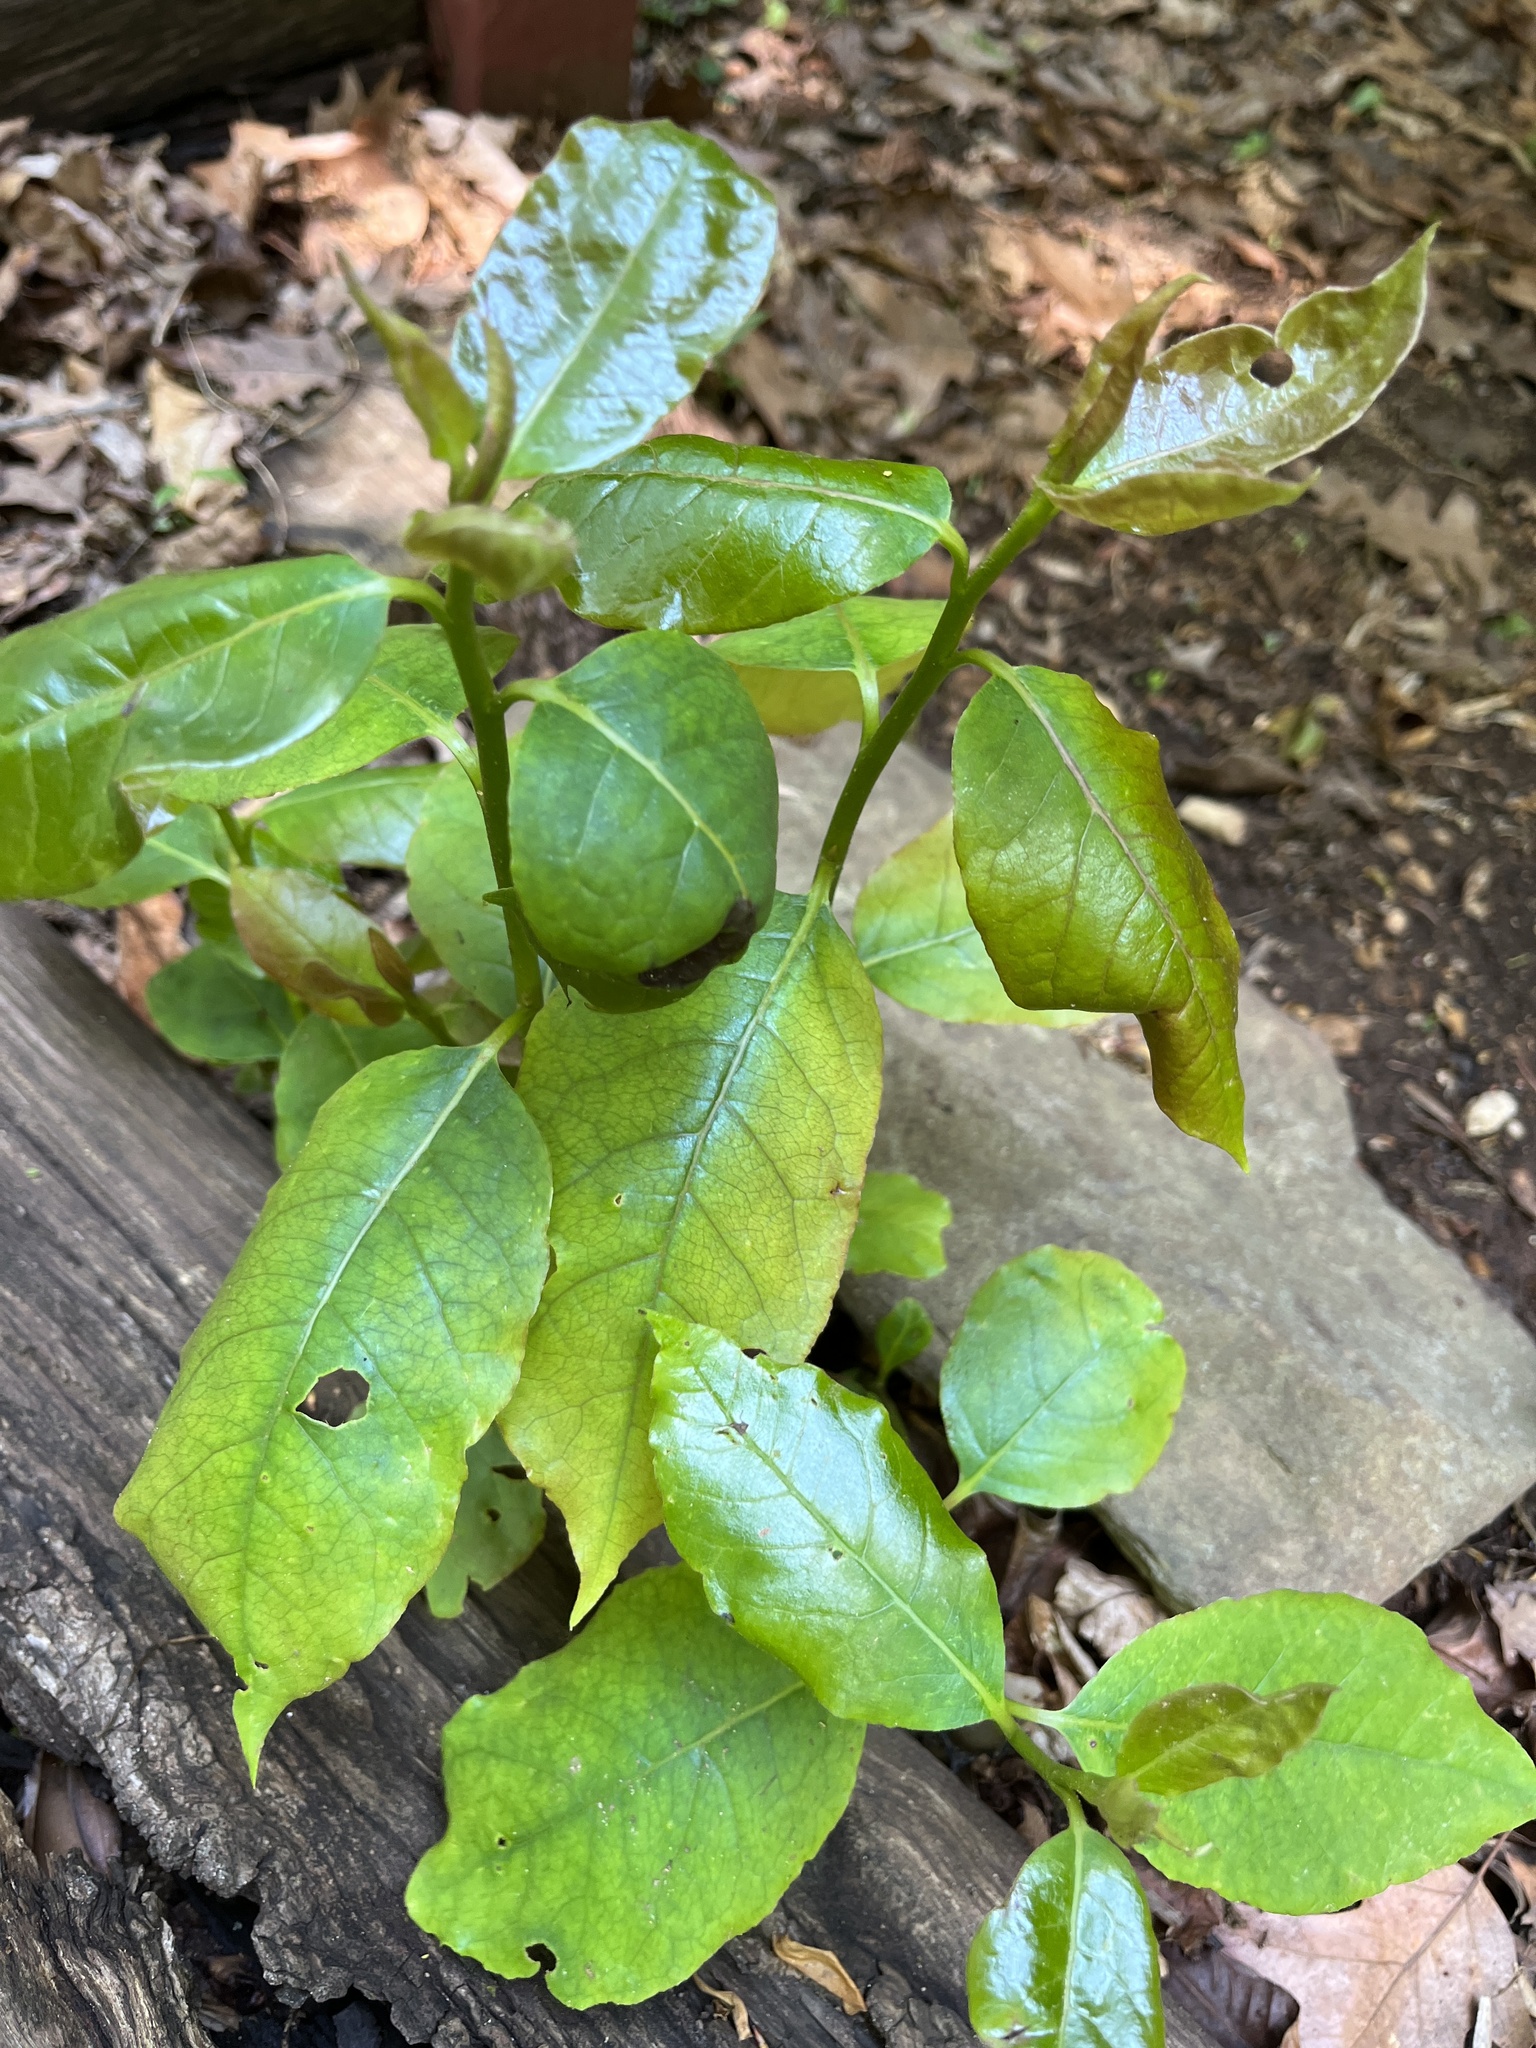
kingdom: Plantae
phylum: Tracheophyta
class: Magnoliopsida
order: Ericales
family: Ebenaceae
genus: Diospyros
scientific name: Diospyros virginiana
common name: Persimmon
